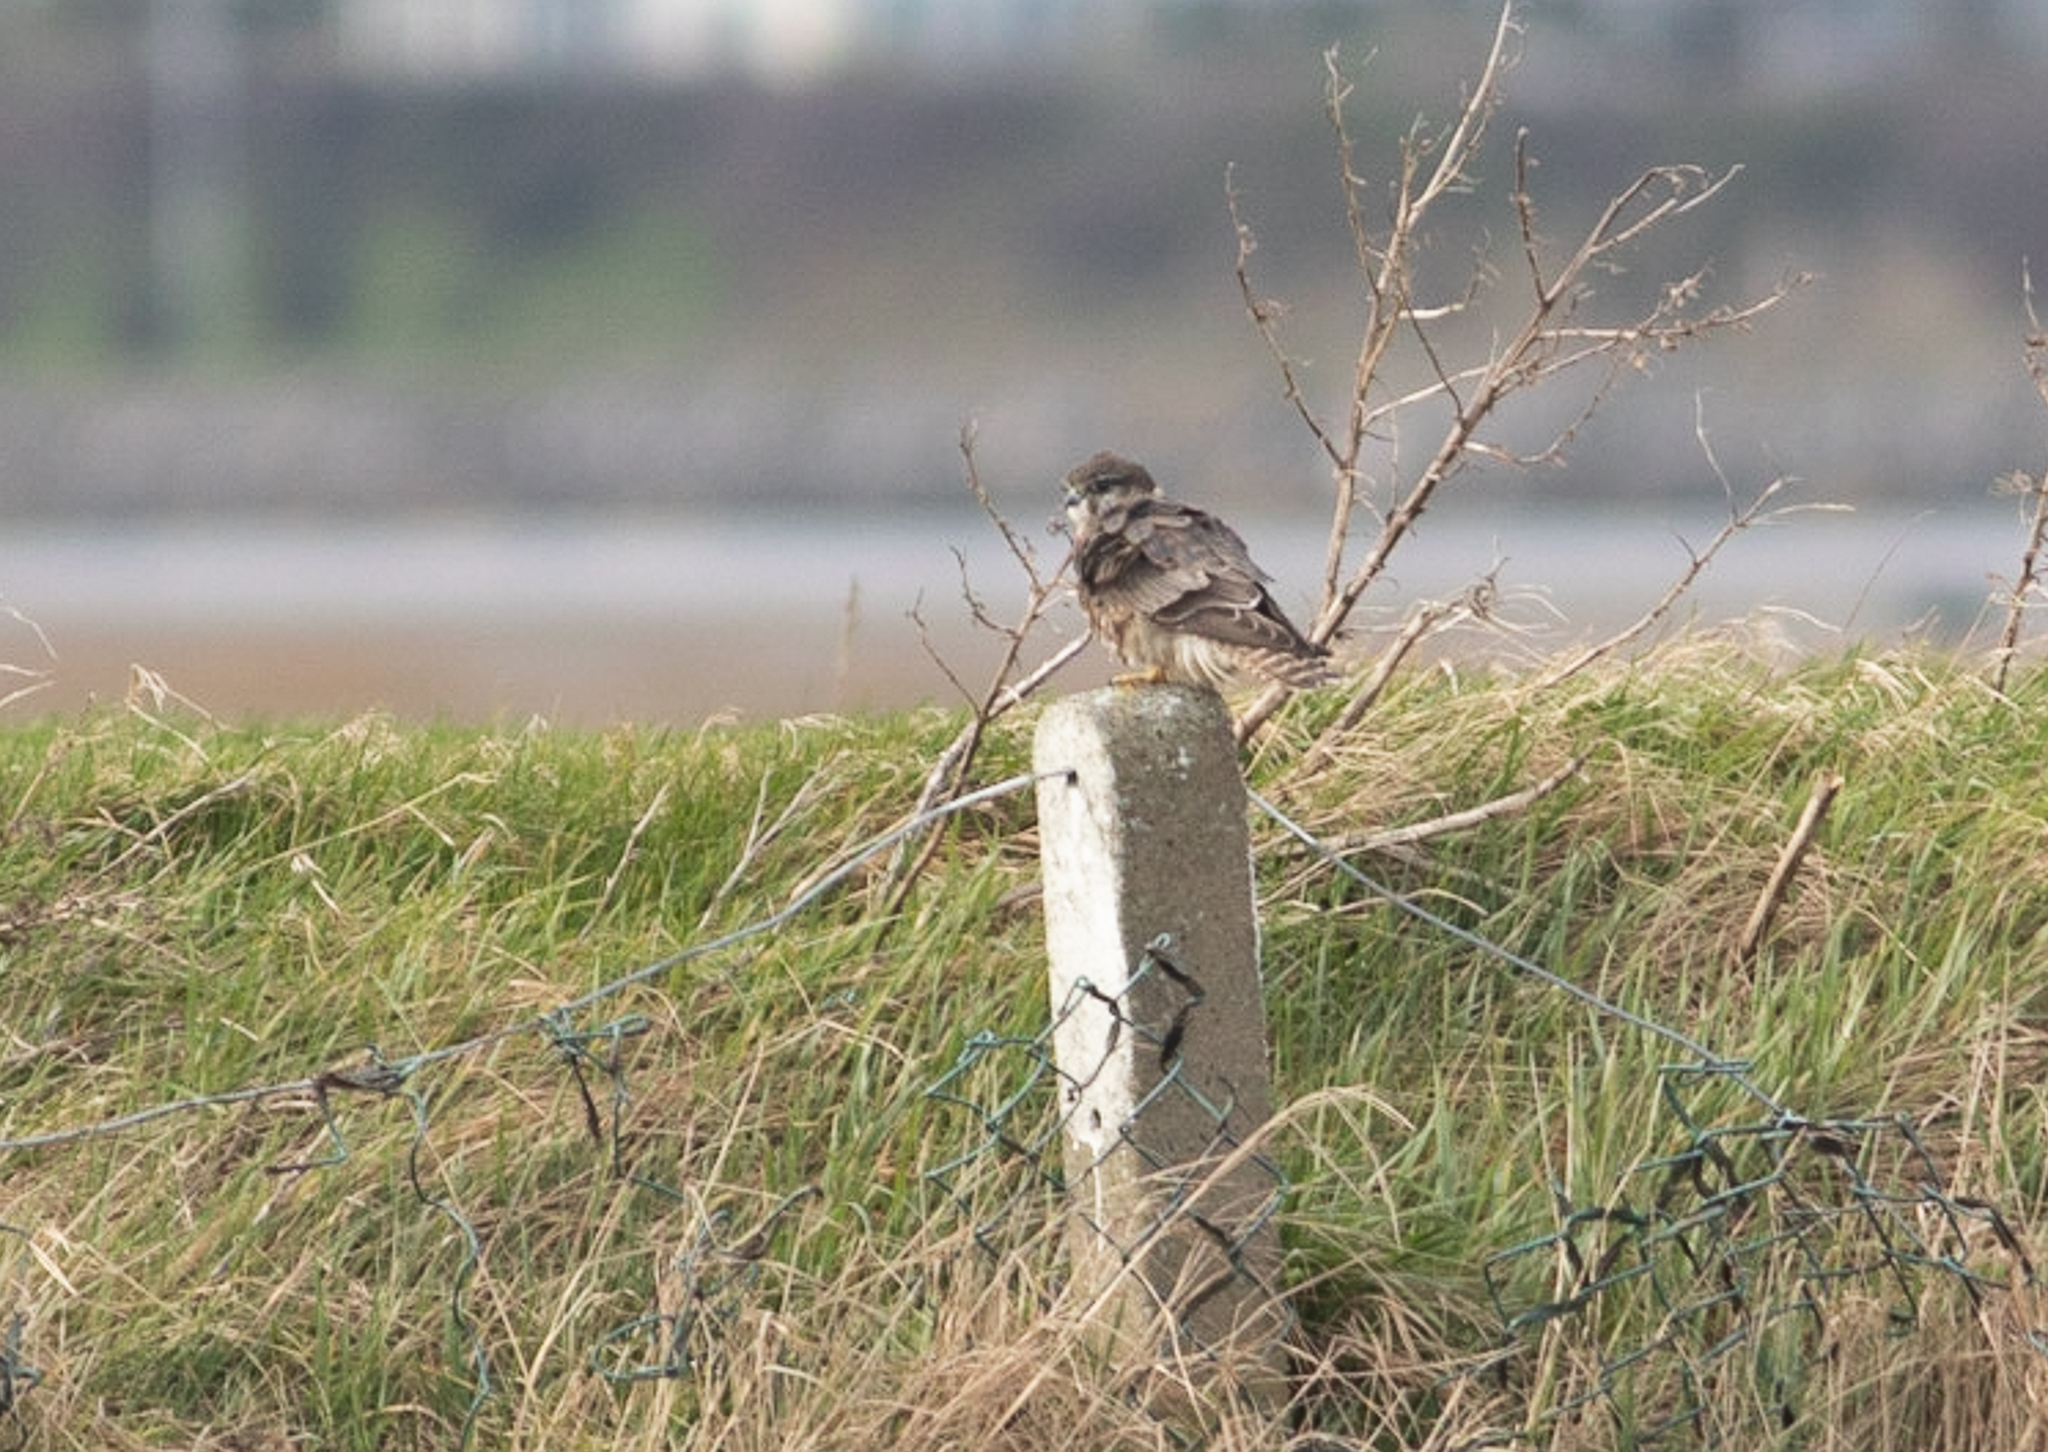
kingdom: Animalia
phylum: Chordata
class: Aves
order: Falconiformes
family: Falconidae
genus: Falco
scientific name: Falco columbarius
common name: Merlin
